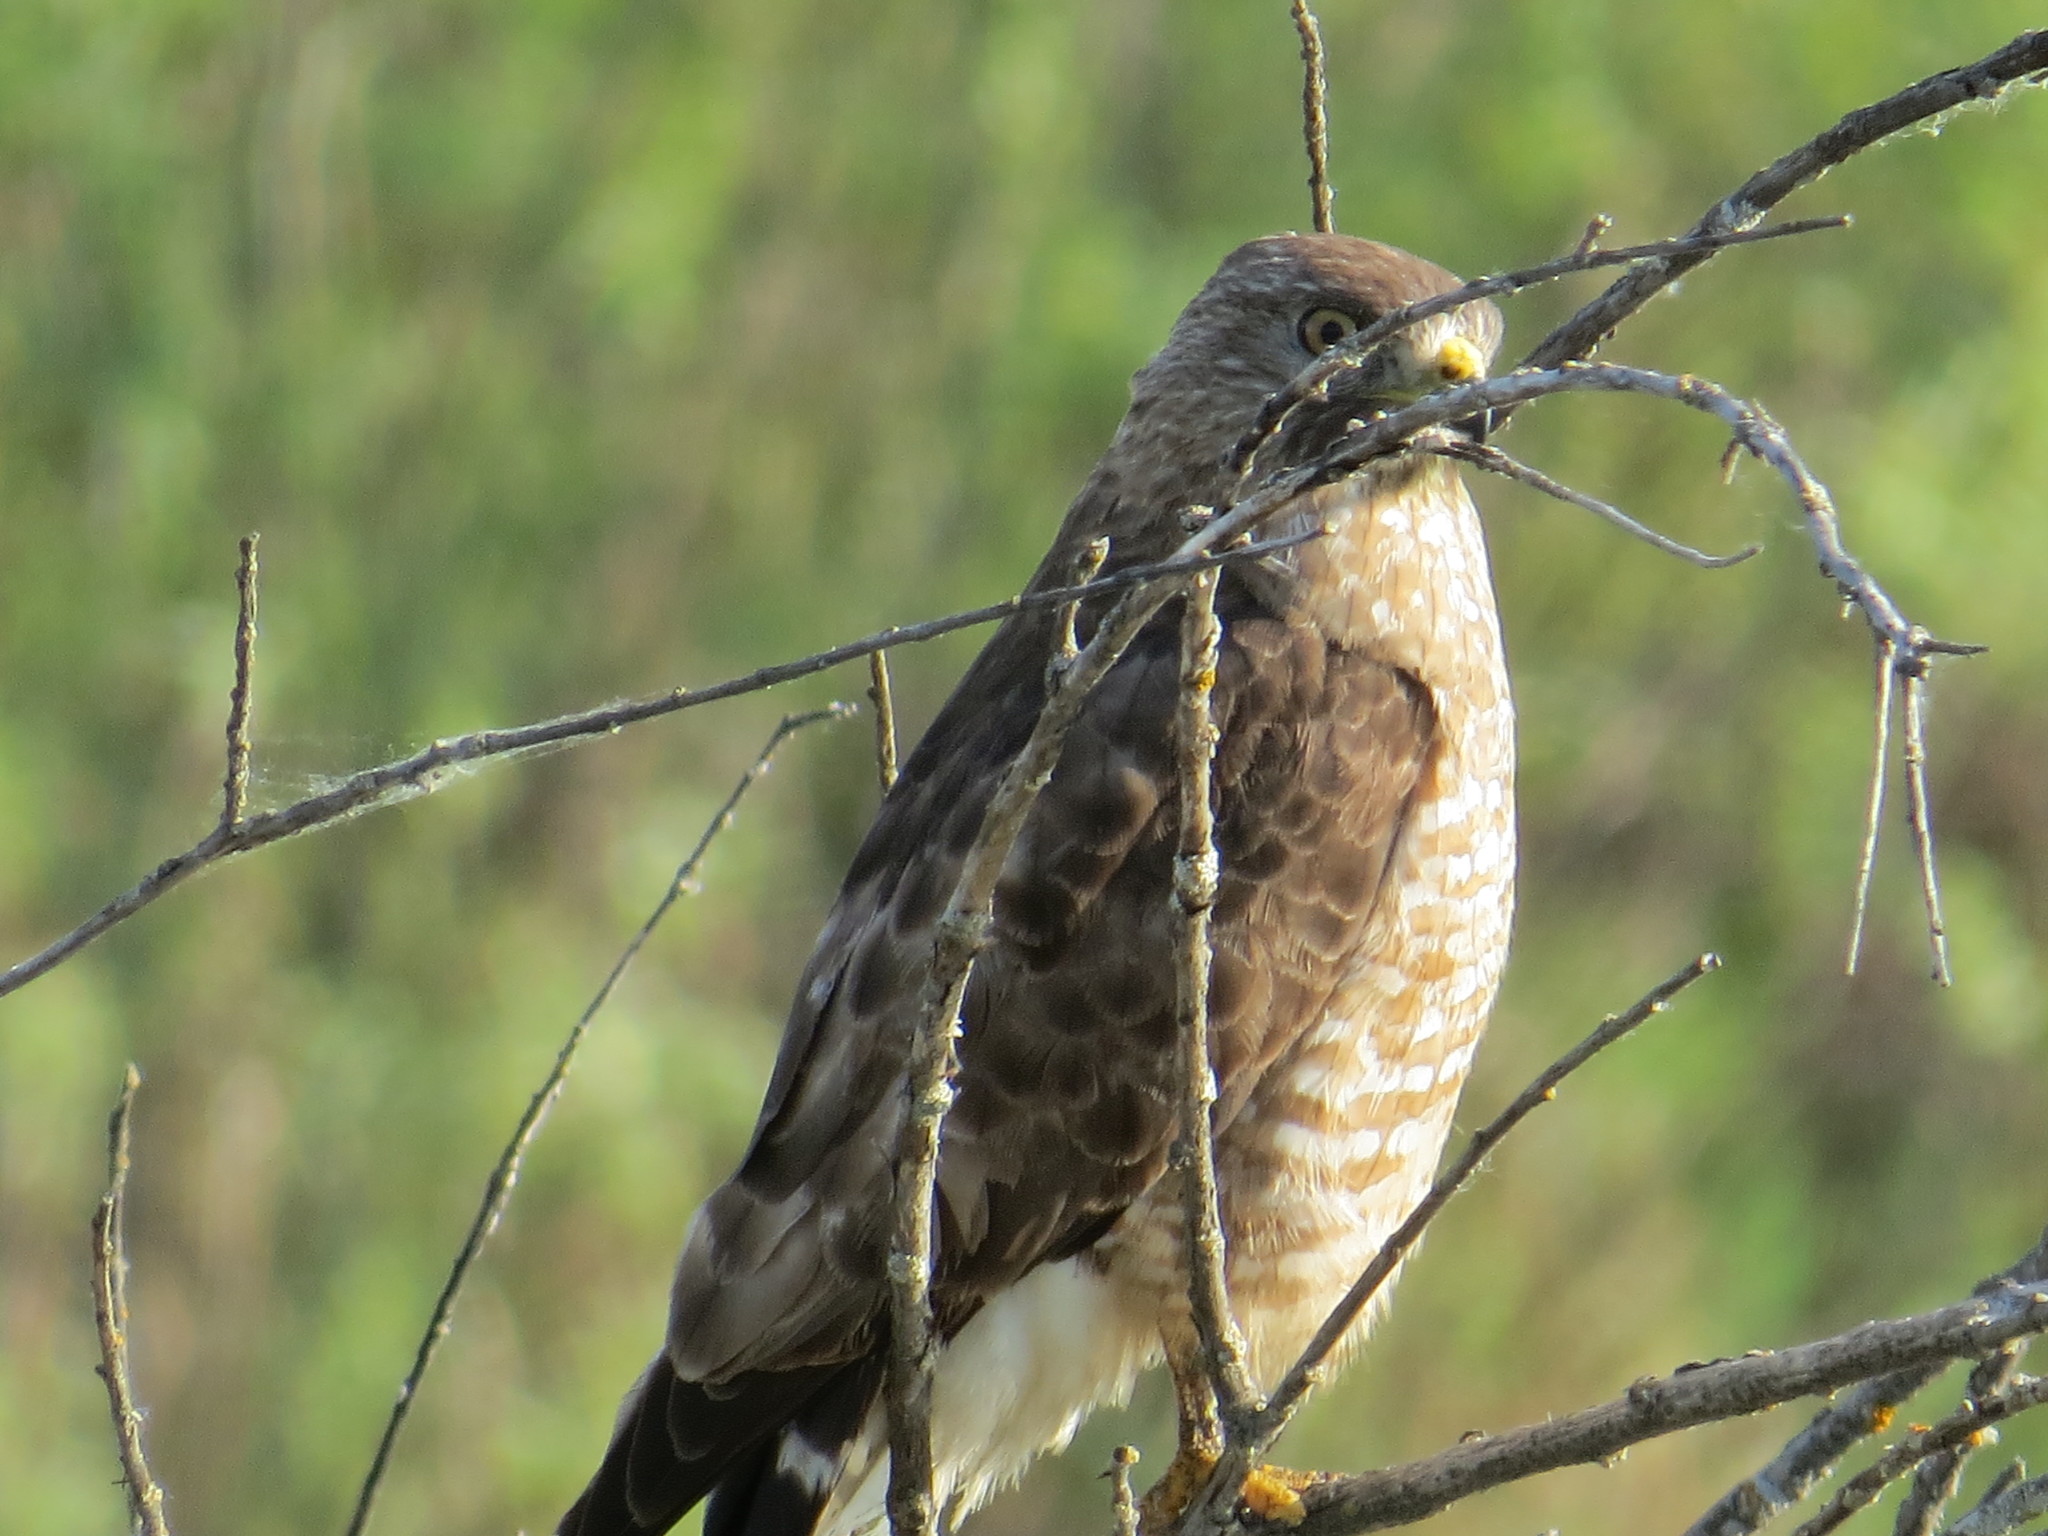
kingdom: Animalia
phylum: Chordata
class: Aves
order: Accipitriformes
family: Accipitridae
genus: Buteo
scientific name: Buteo platypterus
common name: Broad-winged hawk
